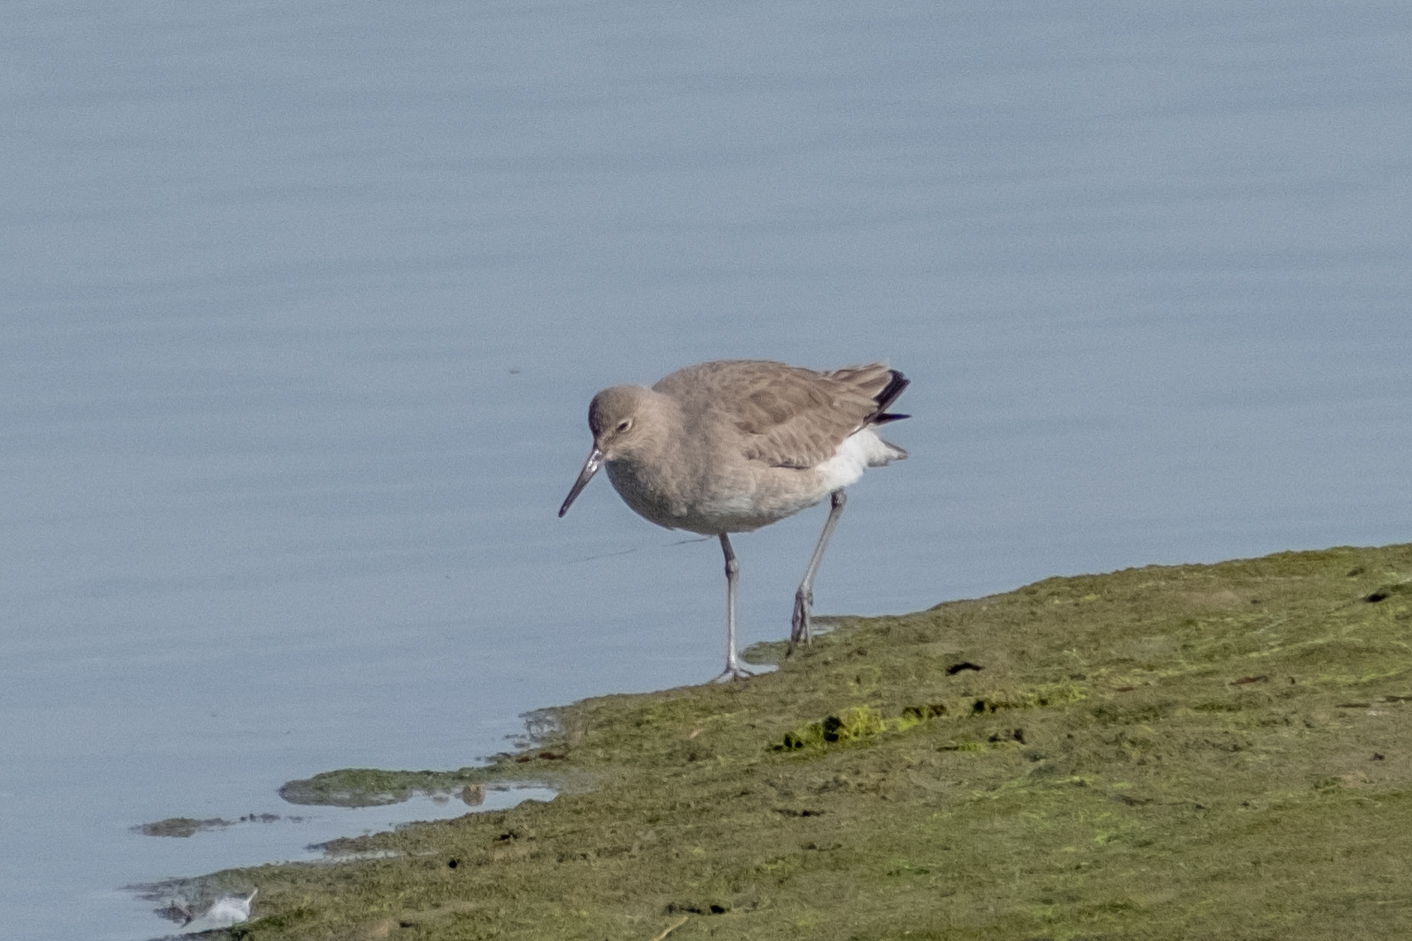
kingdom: Animalia
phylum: Chordata
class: Aves
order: Charadriiformes
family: Scolopacidae
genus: Tringa
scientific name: Tringa semipalmata
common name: Willet
